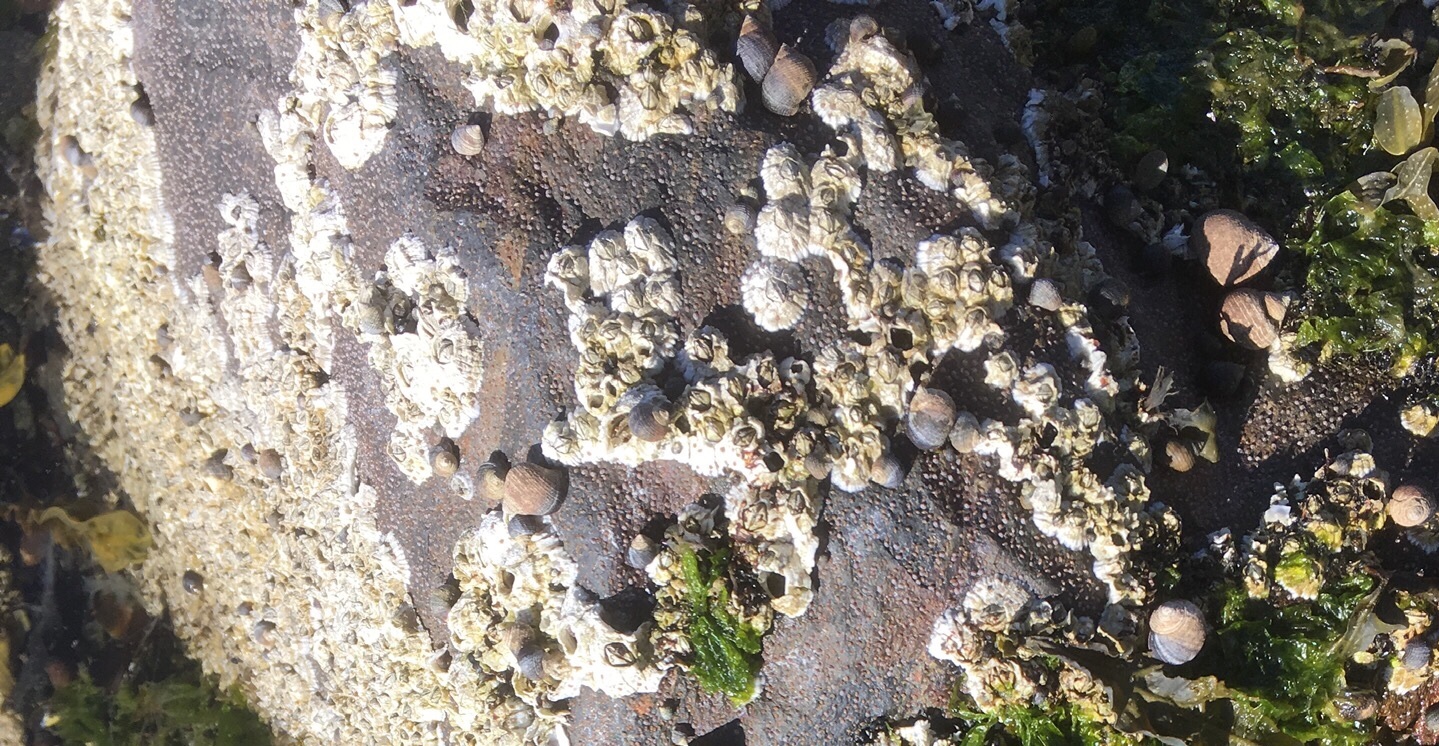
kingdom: Animalia
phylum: Arthropoda
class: Maxillopoda
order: Sessilia
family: Archaeobalanidae
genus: Semibalanus
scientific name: Semibalanus balanoides
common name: Acorn barnacle
